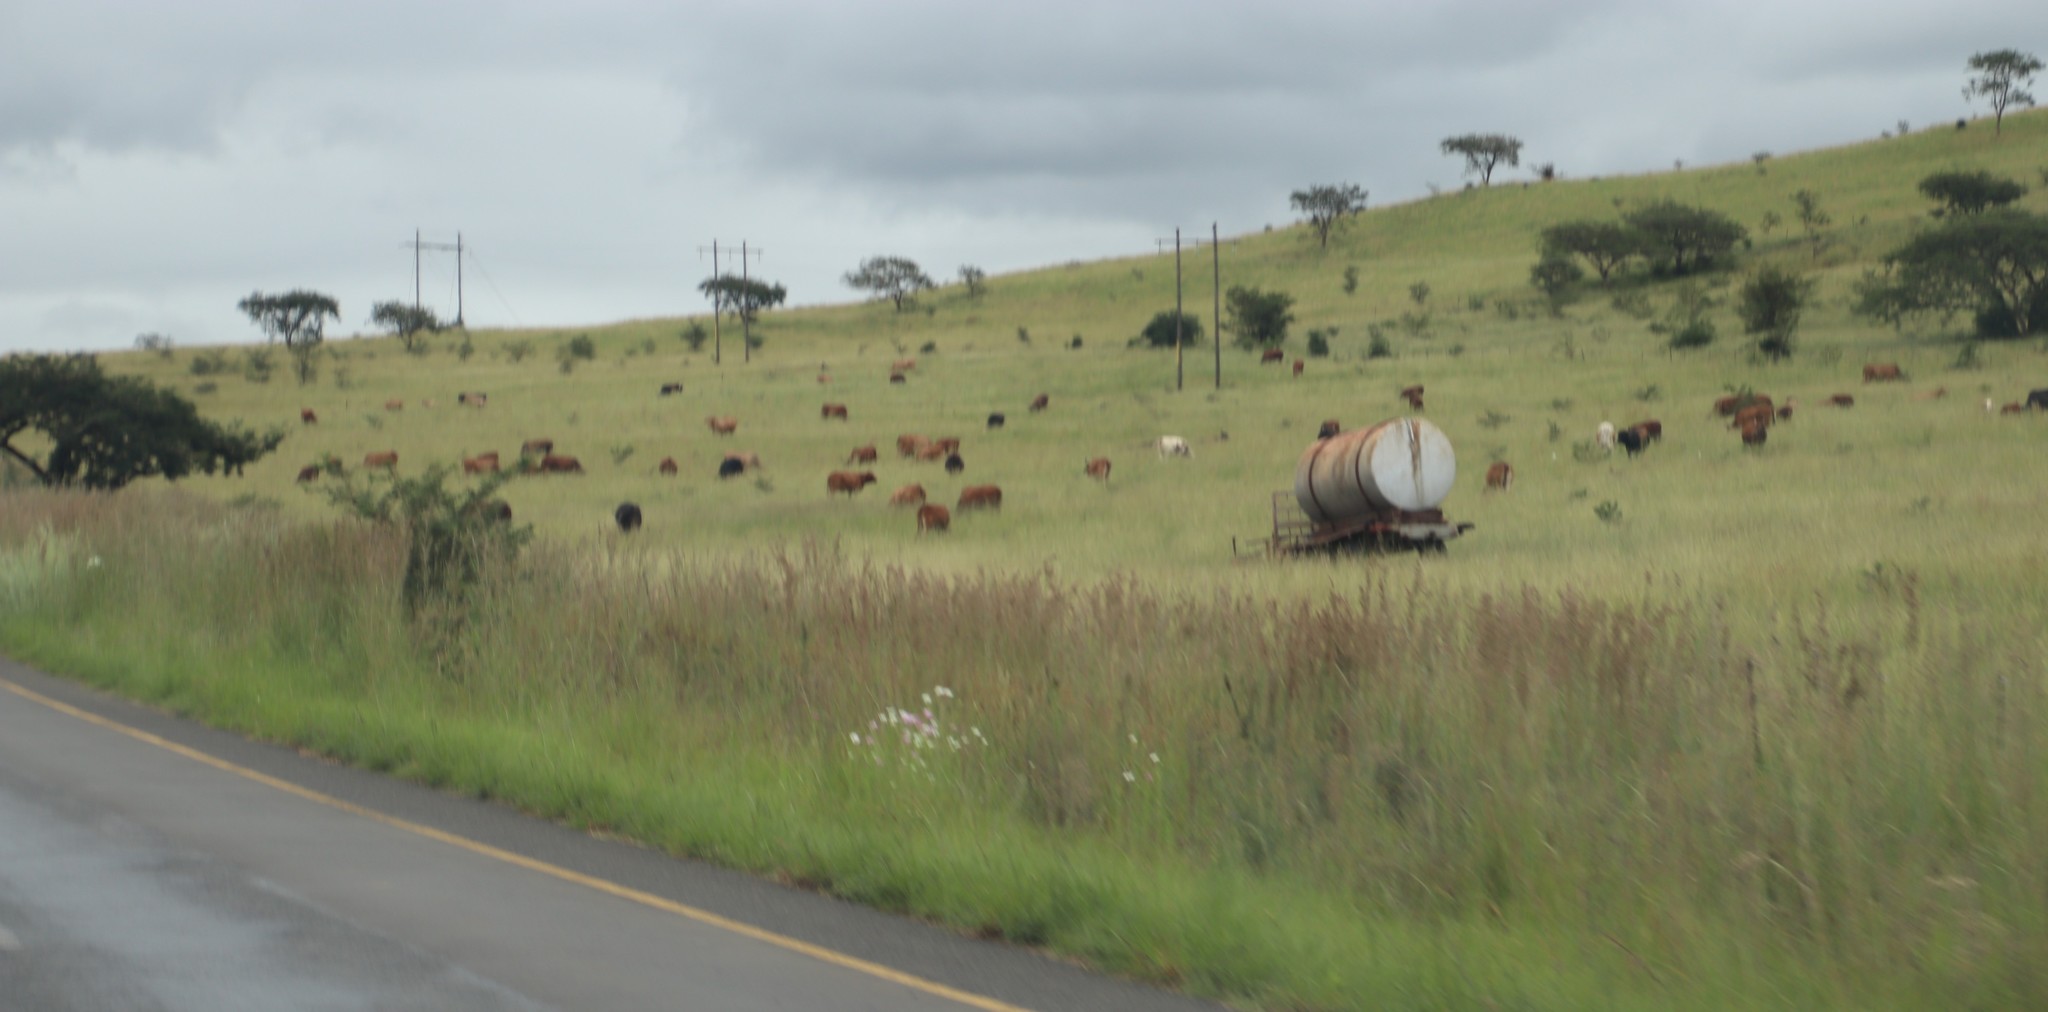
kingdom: Plantae
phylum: Tracheophyta
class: Magnoliopsida
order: Asterales
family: Asteraceae
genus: Cosmos
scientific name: Cosmos bipinnatus
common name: Garden cosmos
